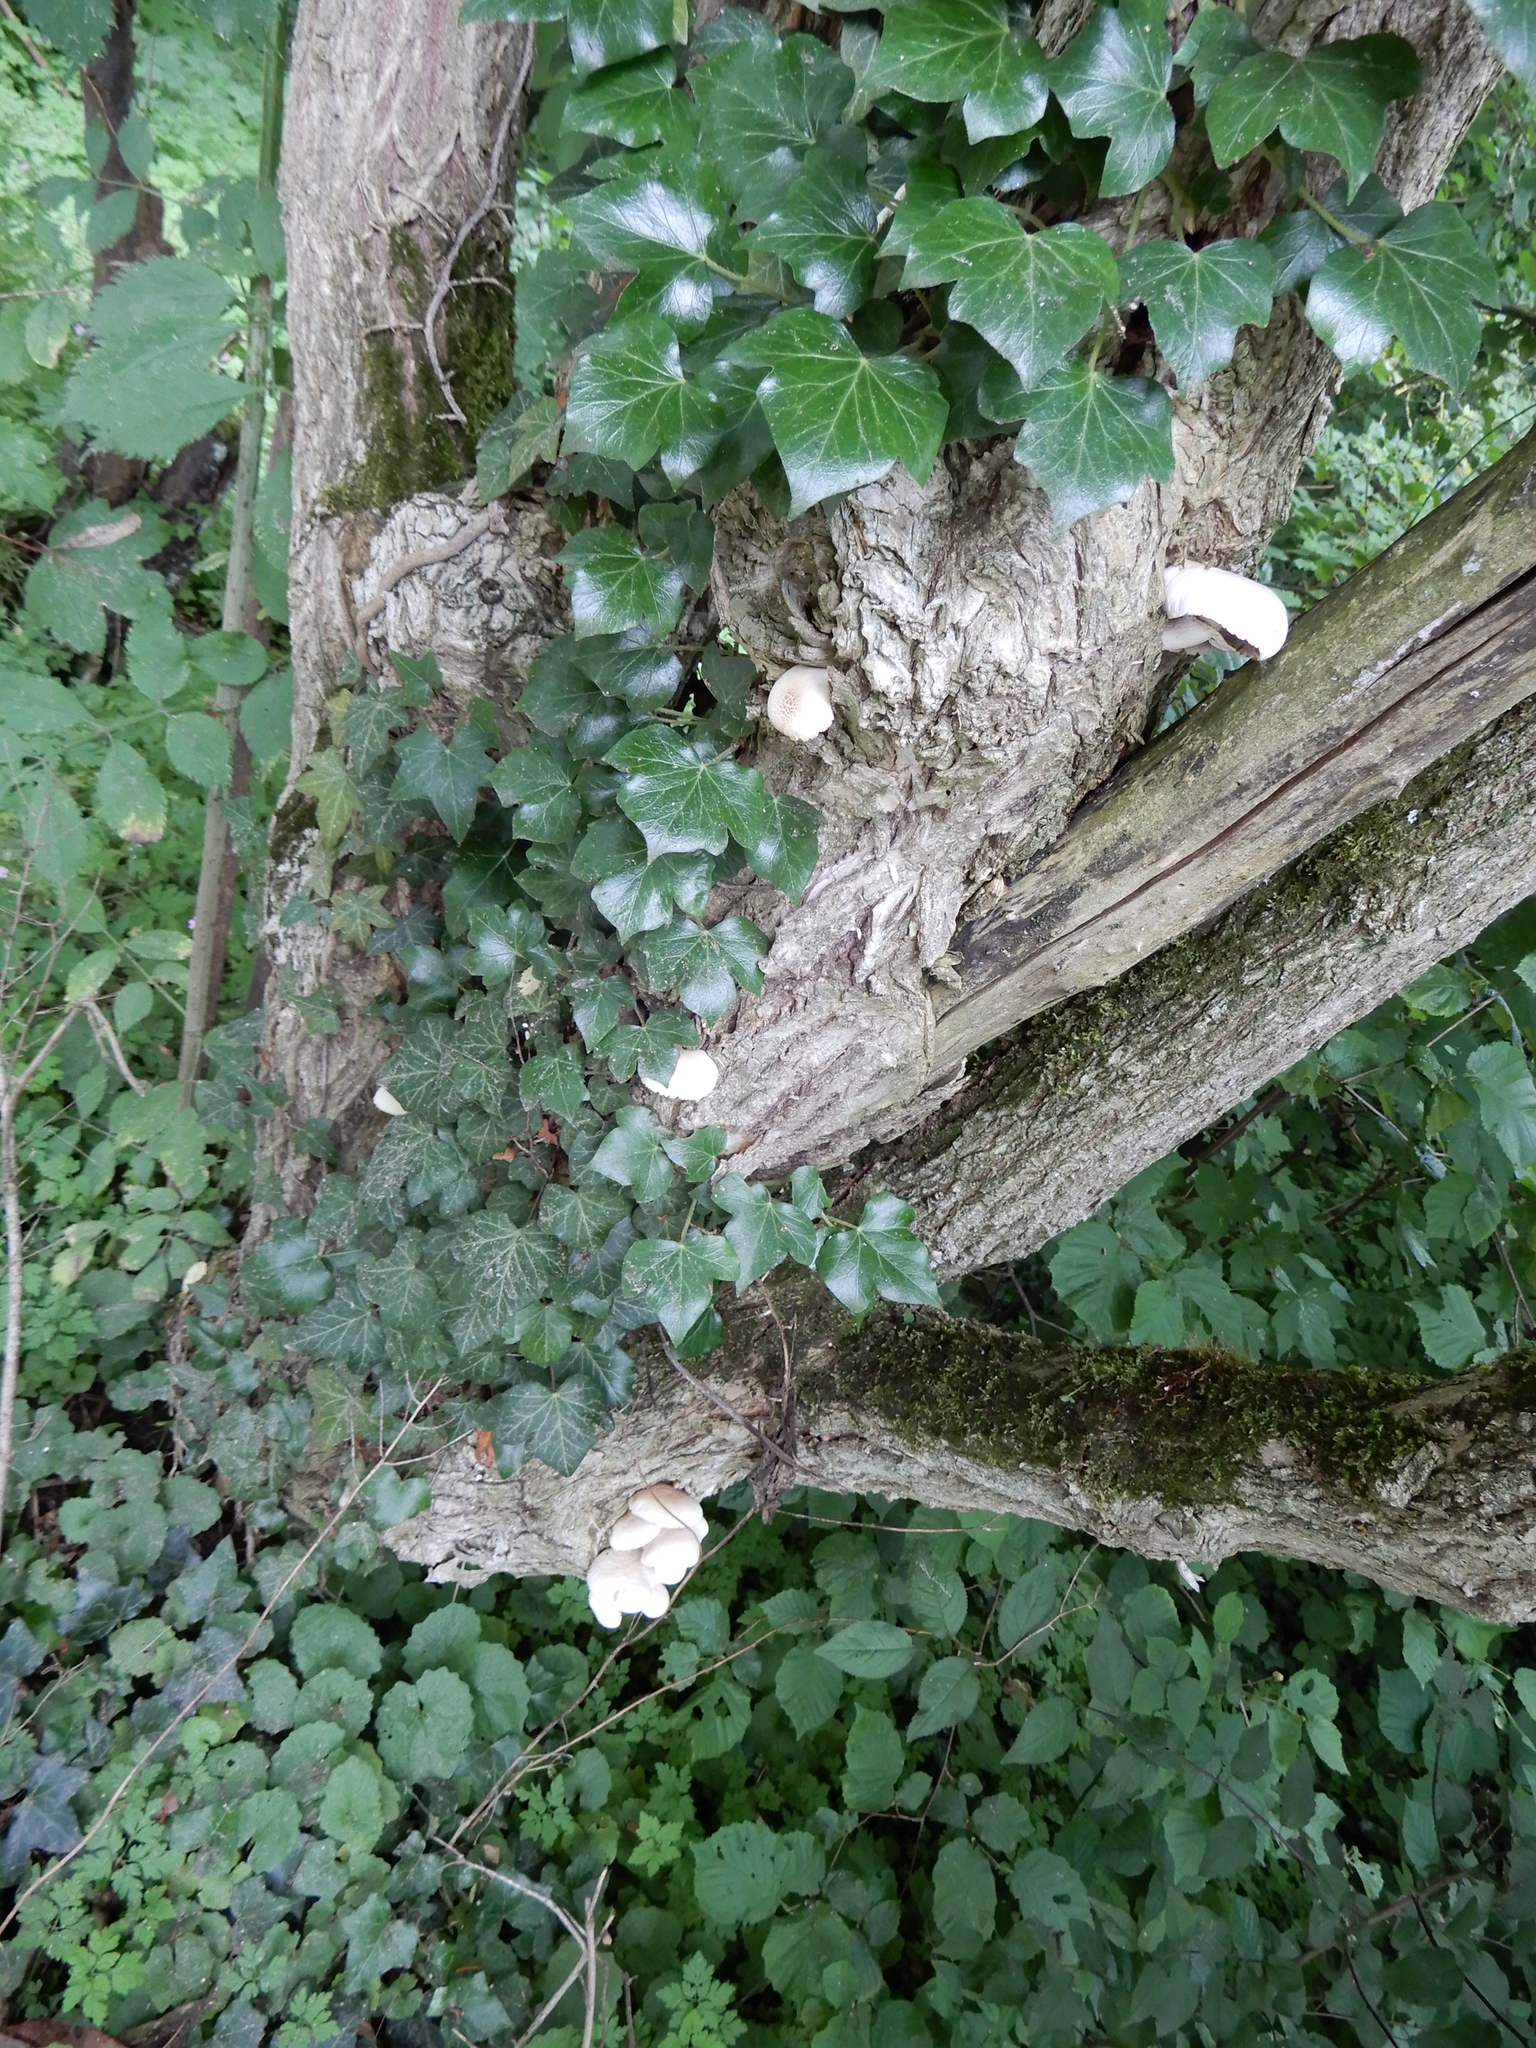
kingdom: Plantae
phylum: Tracheophyta
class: Magnoliopsida
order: Apiales
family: Araliaceae
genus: Hedera
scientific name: Hedera helix
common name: Ivy
